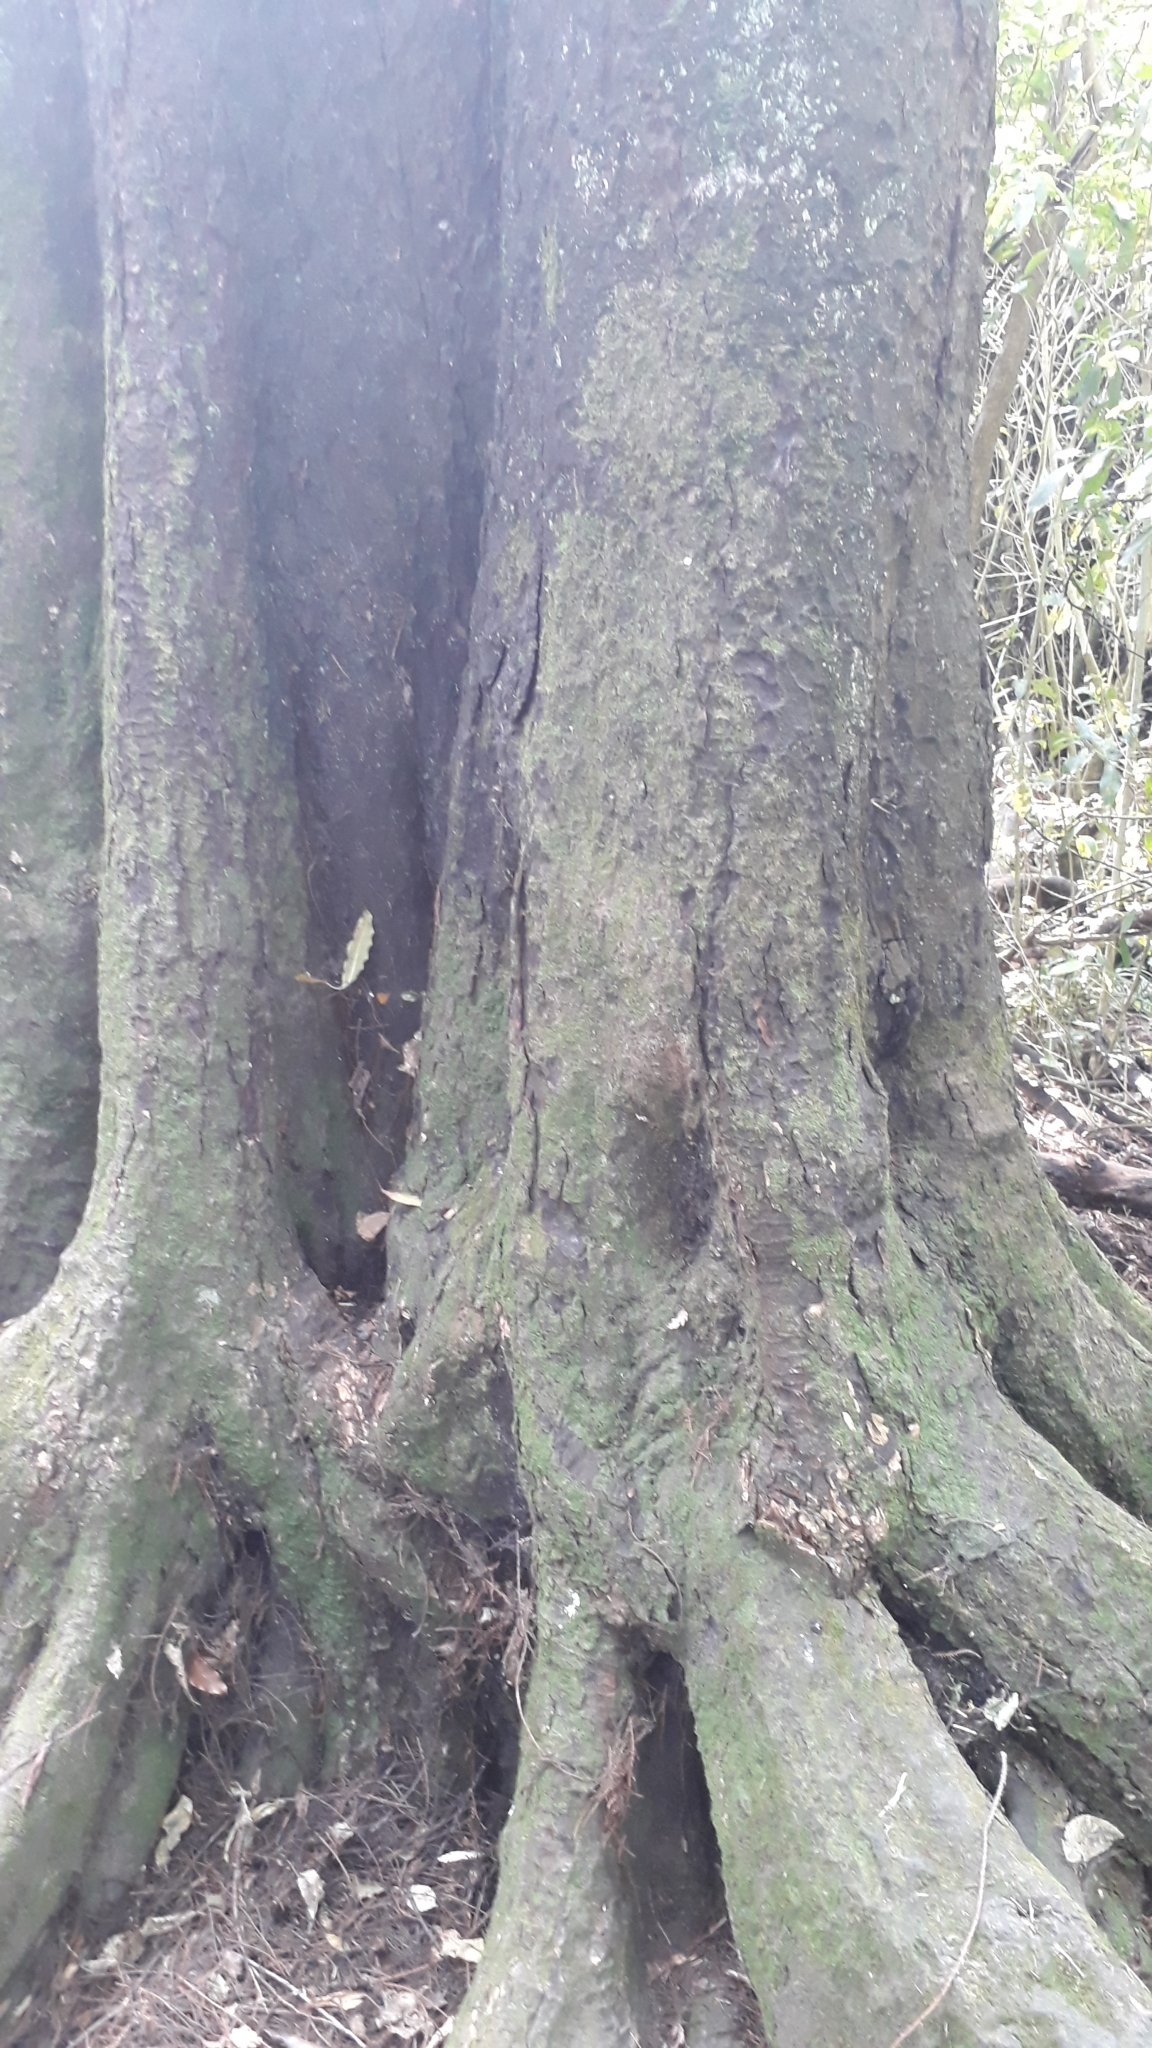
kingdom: Plantae
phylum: Tracheophyta
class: Pinopsida
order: Pinales
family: Podocarpaceae
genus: Dacrycarpus
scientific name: Dacrycarpus dacrydioides
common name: White pine
